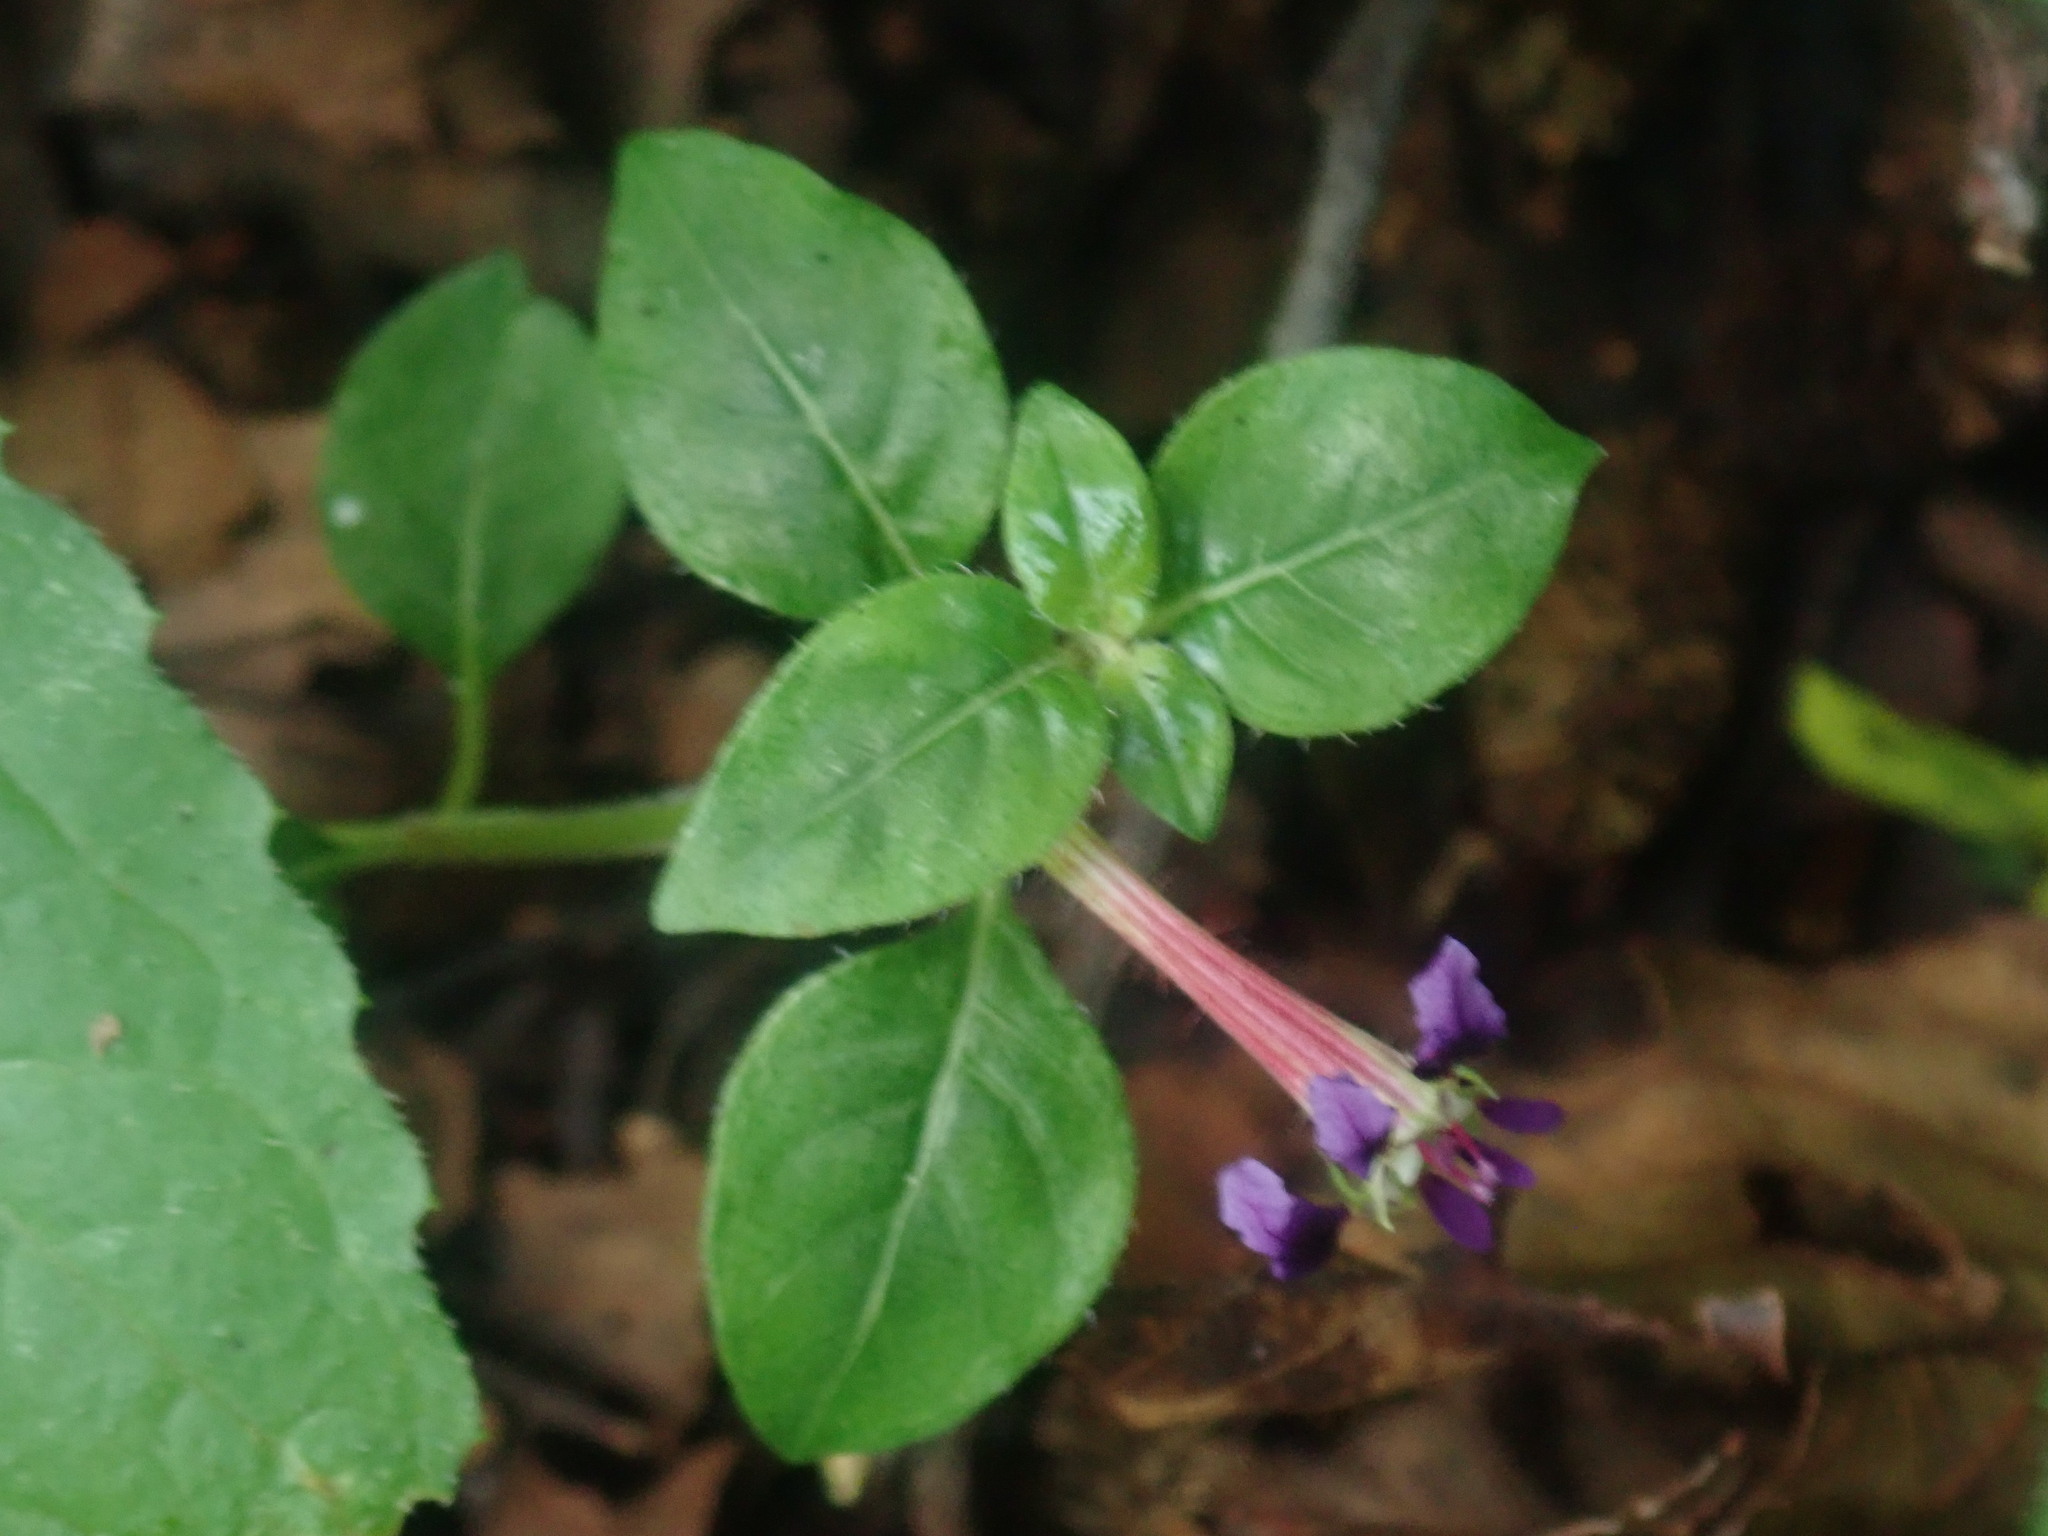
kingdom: Plantae
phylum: Tracheophyta
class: Magnoliopsida
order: Myrtales
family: Lythraceae
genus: Cuphea
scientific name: Cuphea calaminthifolia
